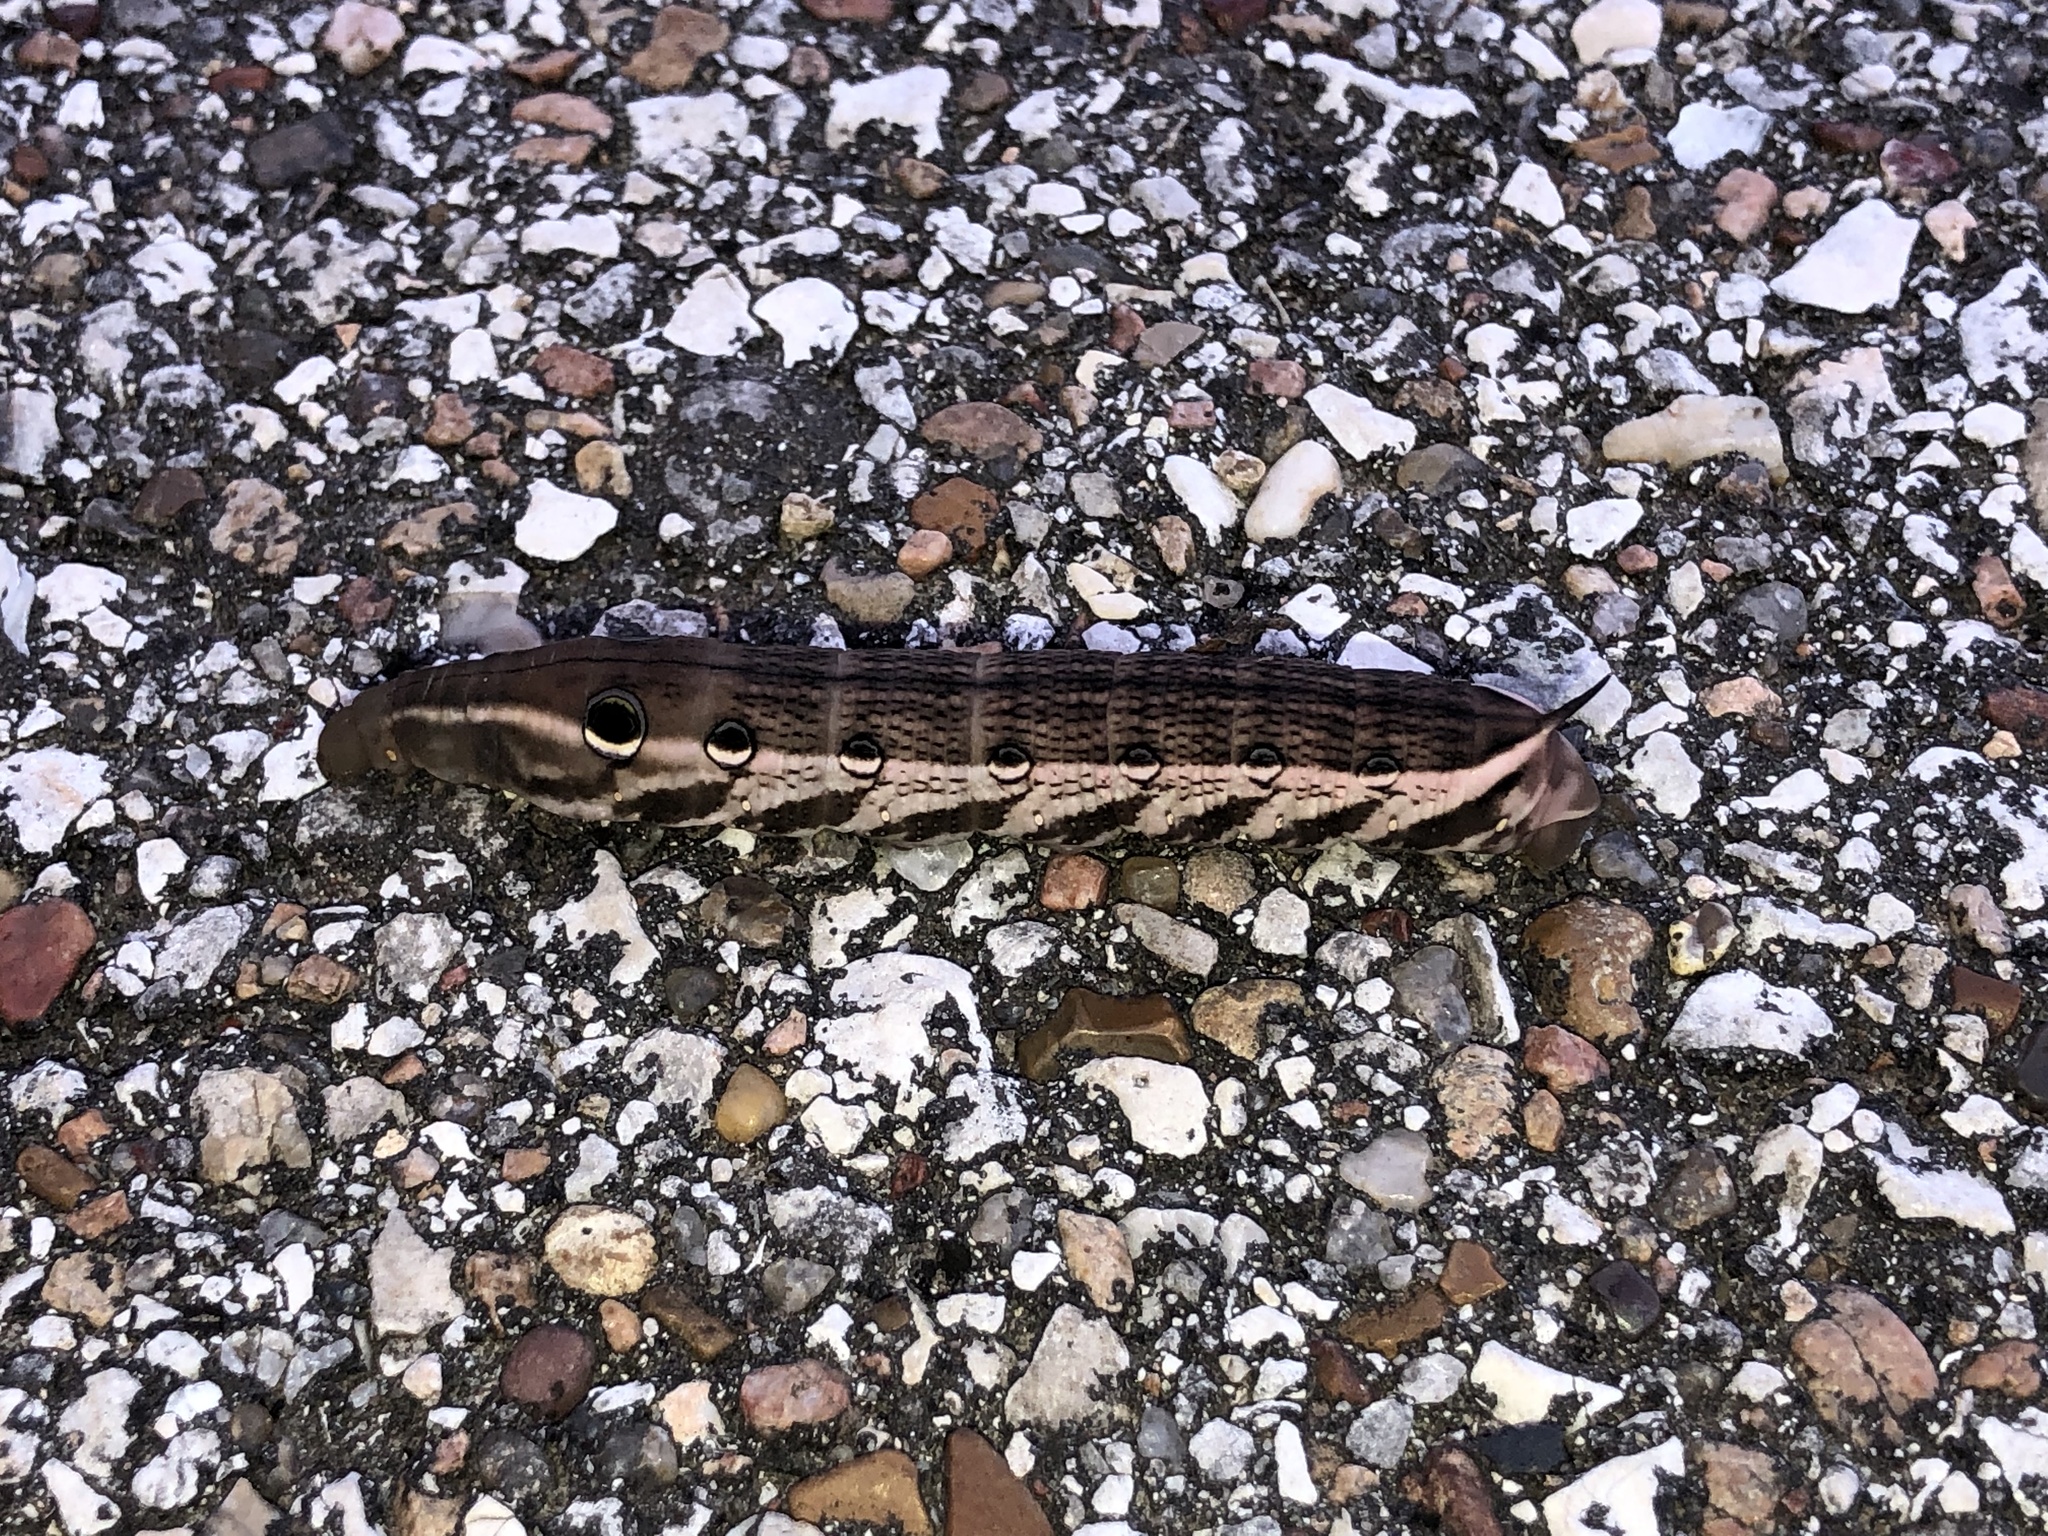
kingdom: Animalia
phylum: Arthropoda
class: Insecta
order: Lepidoptera
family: Sphingidae
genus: Xylophanes
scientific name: Xylophanes tersa
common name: Tersa sphinx
